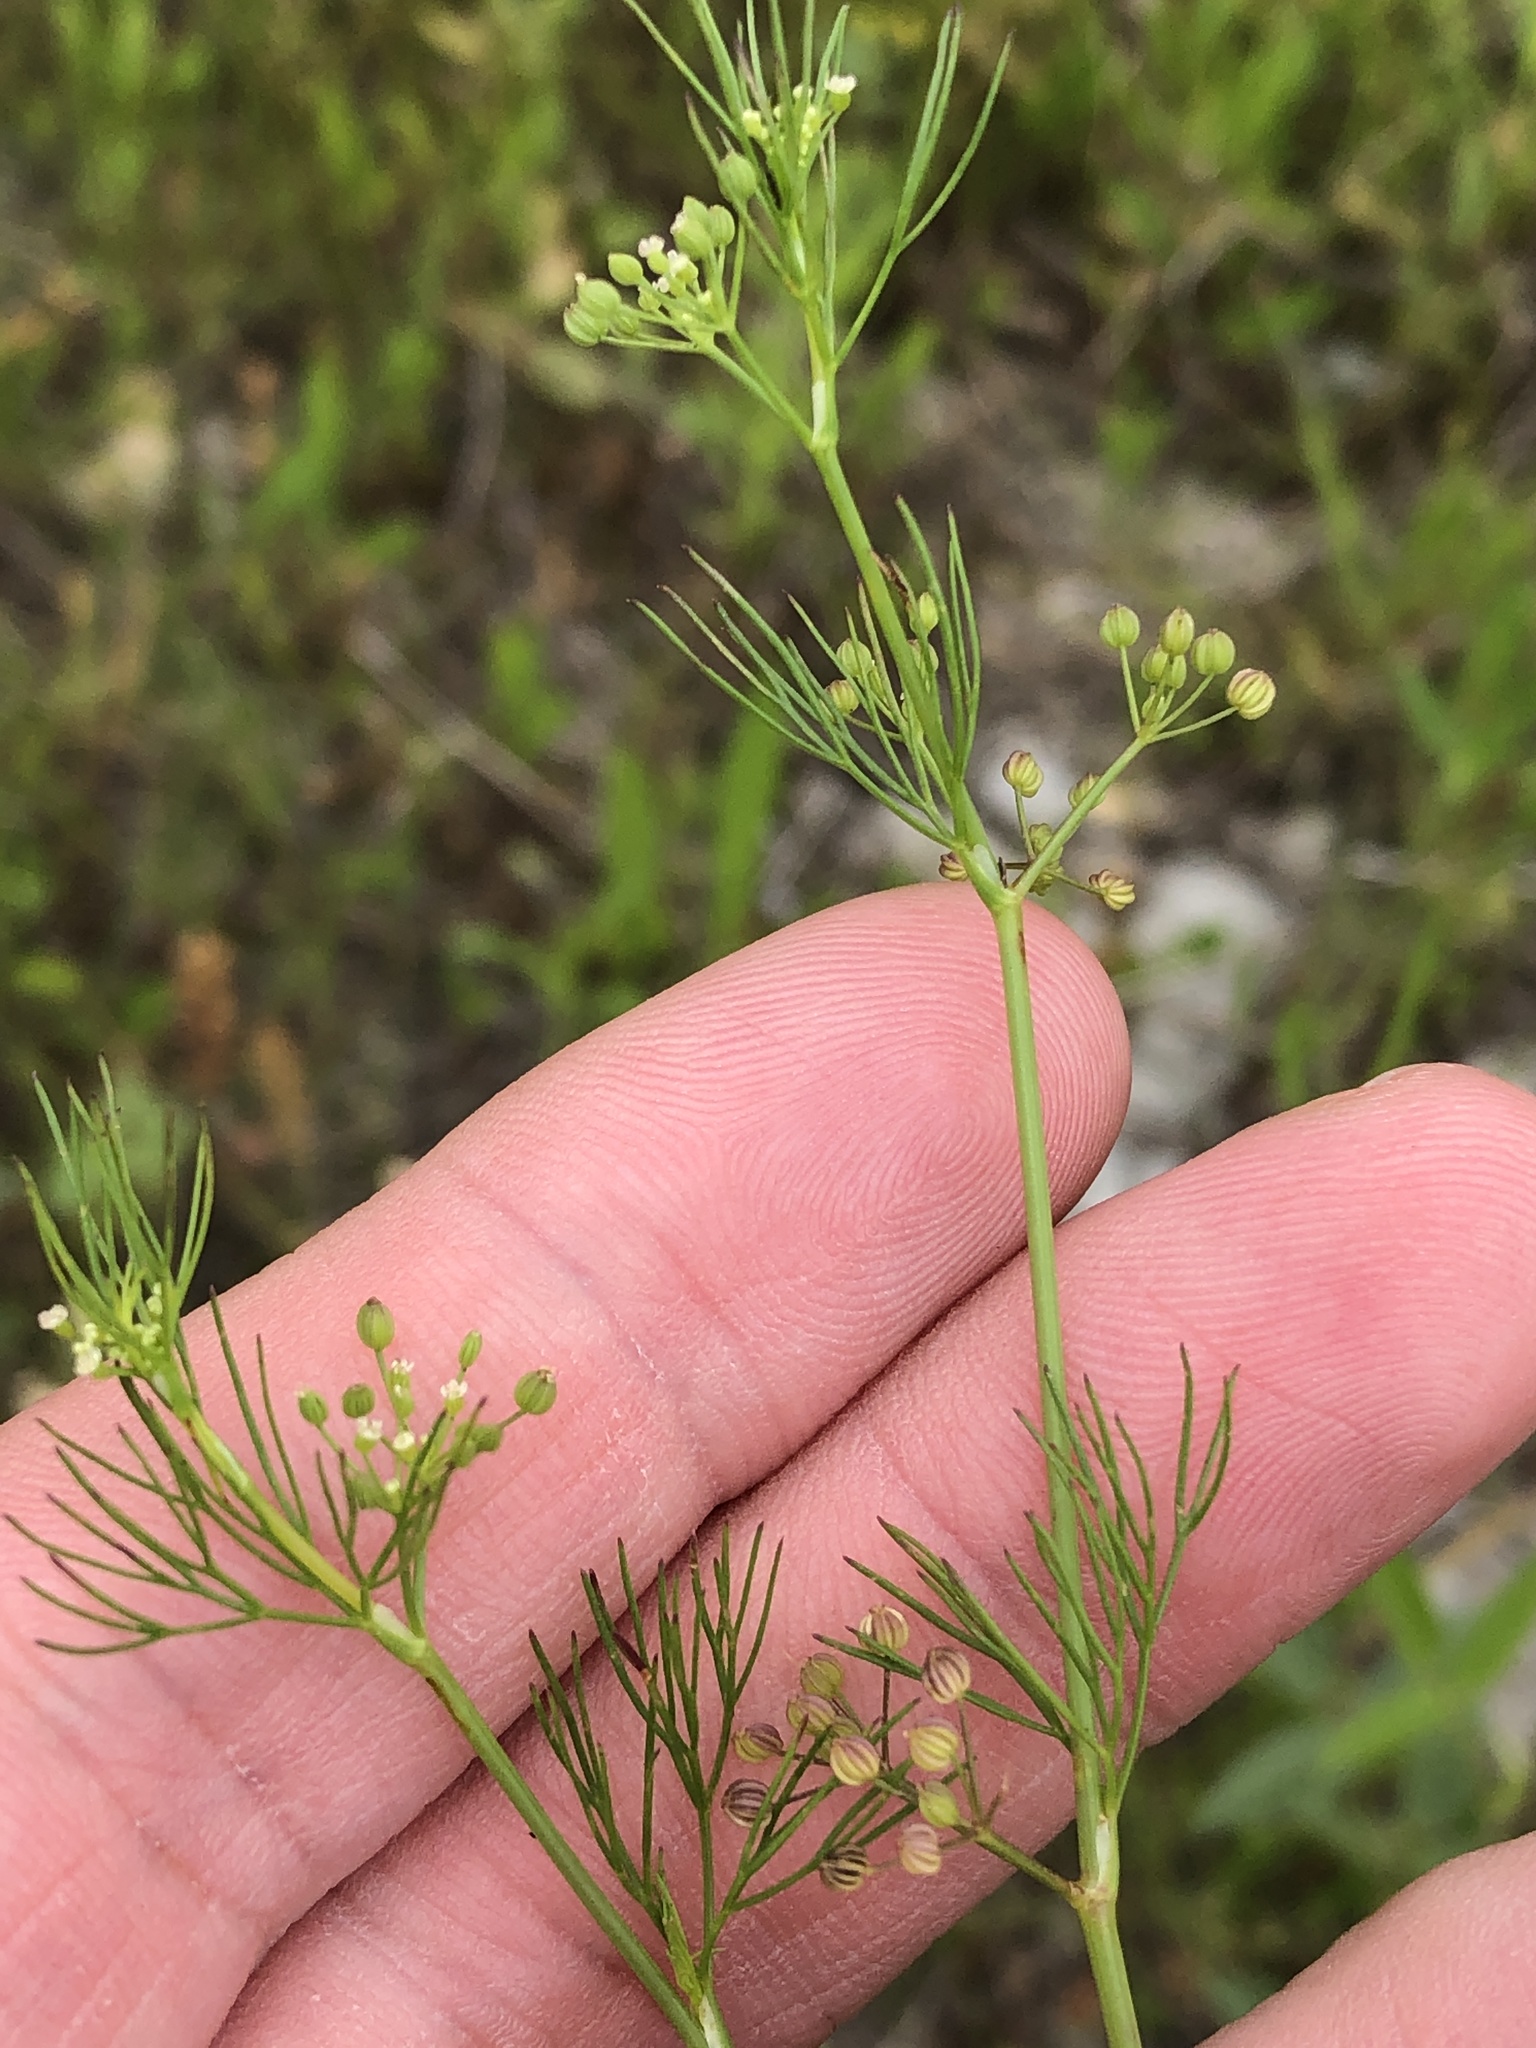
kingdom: Plantae
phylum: Tracheophyta
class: Magnoliopsida
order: Apiales
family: Apiaceae
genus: Cyclospermum
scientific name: Cyclospermum leptophyllum
